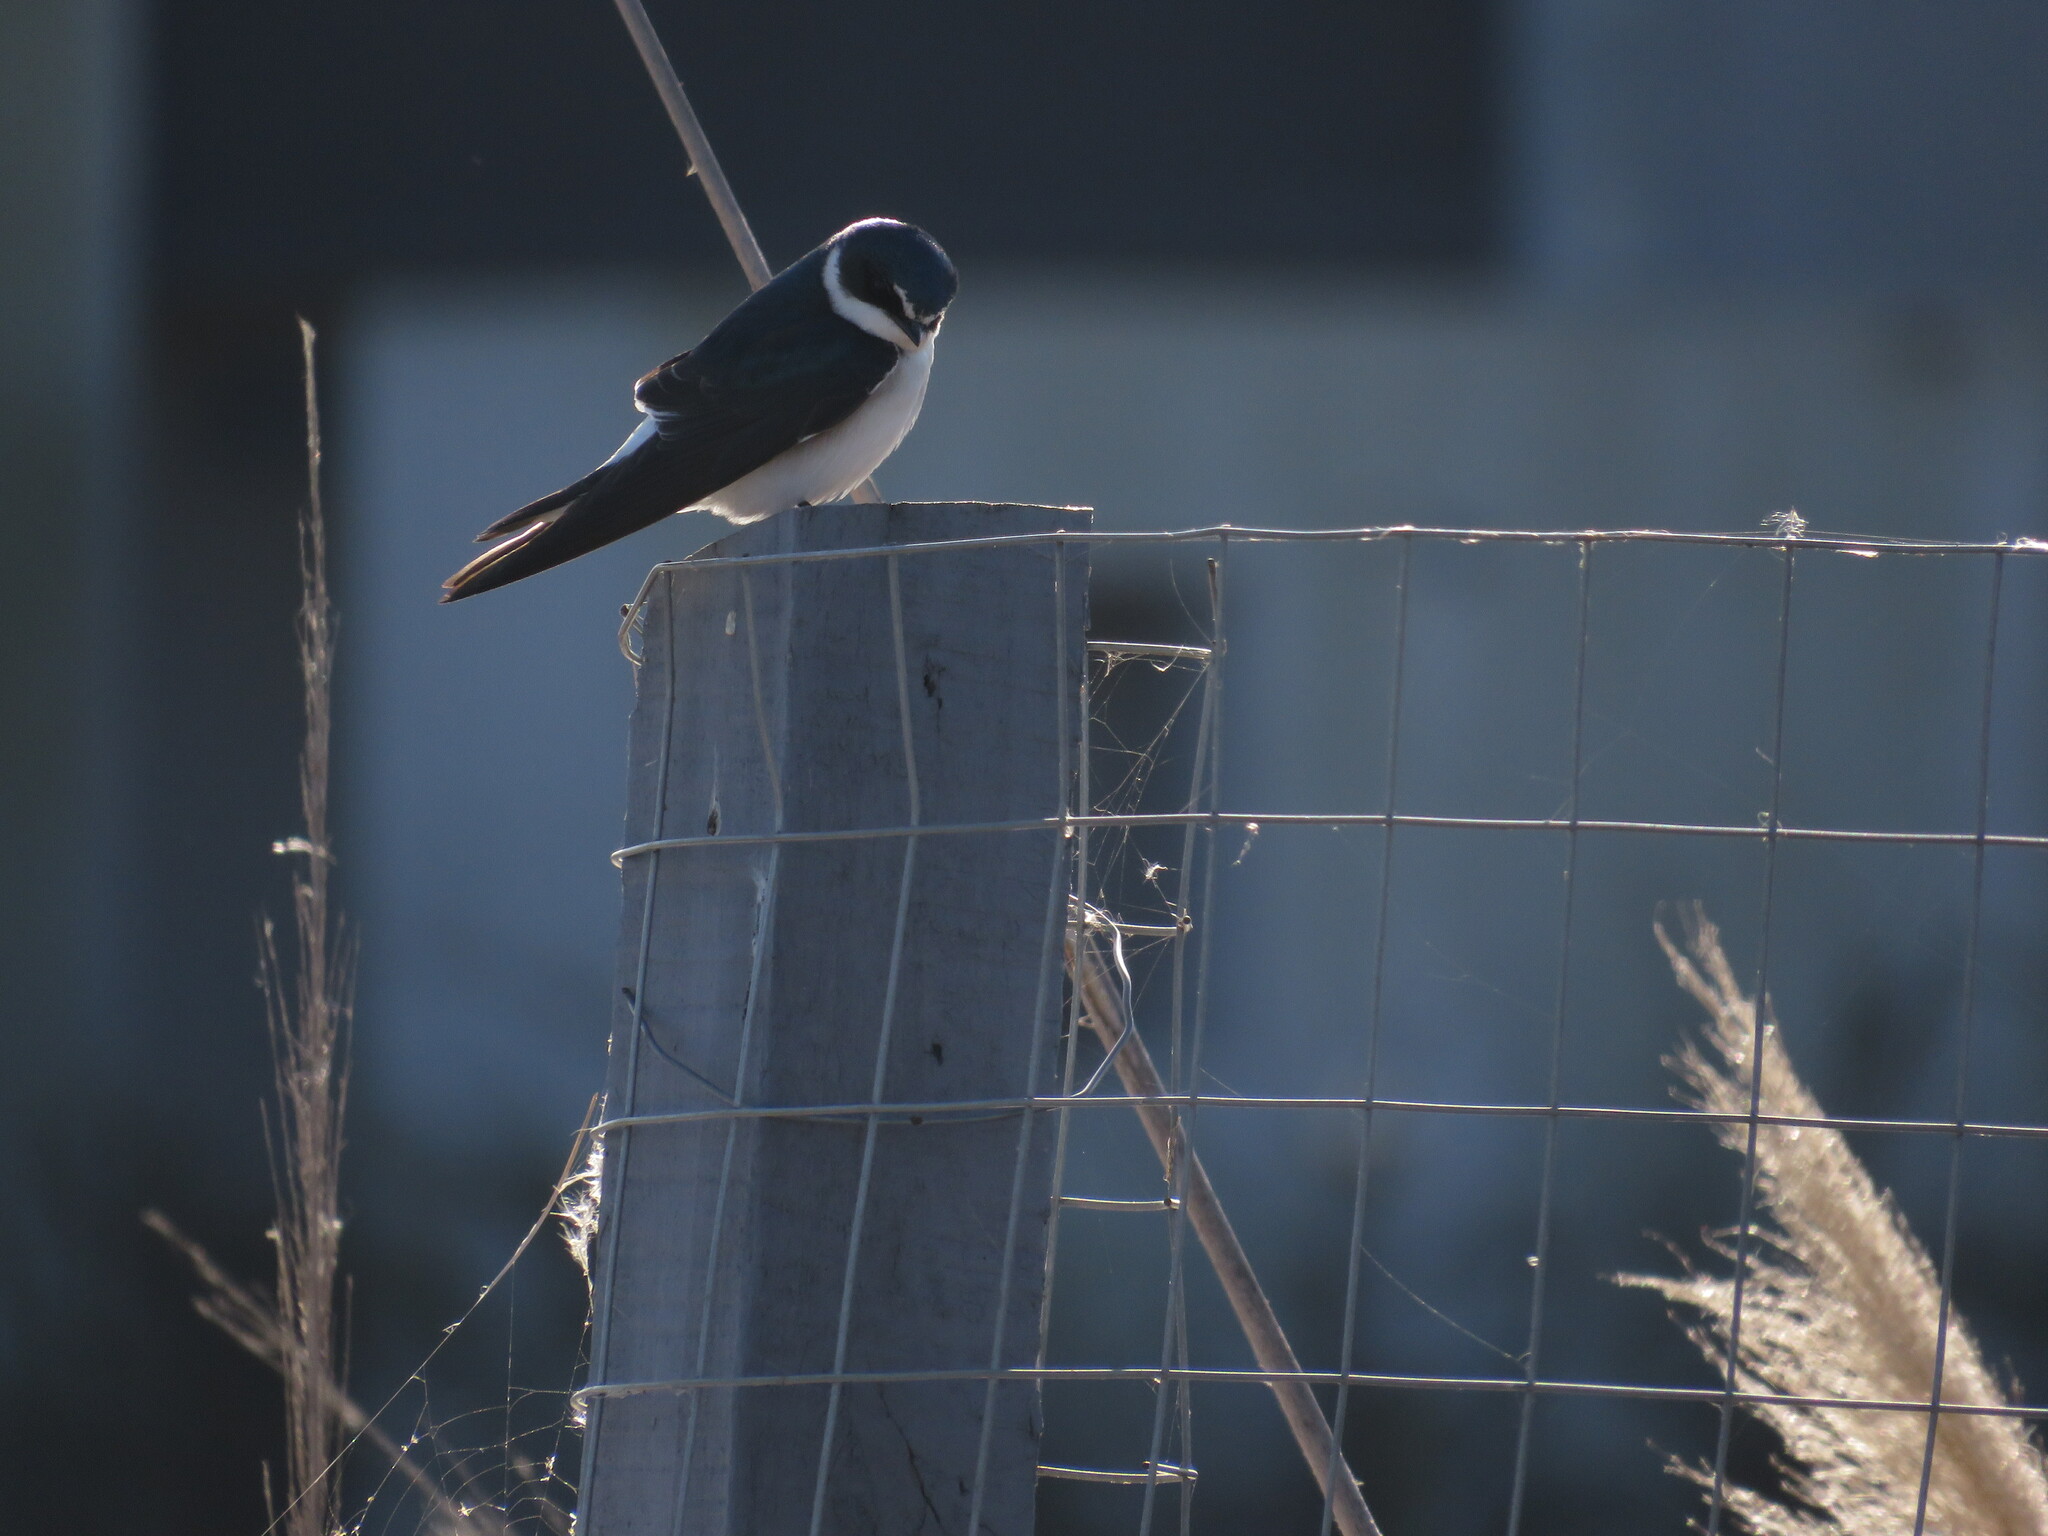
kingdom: Animalia
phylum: Chordata
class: Aves
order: Passeriformes
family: Hirundinidae
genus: Tachycineta
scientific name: Tachycineta leucorrhoa
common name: White-rumped swallow
